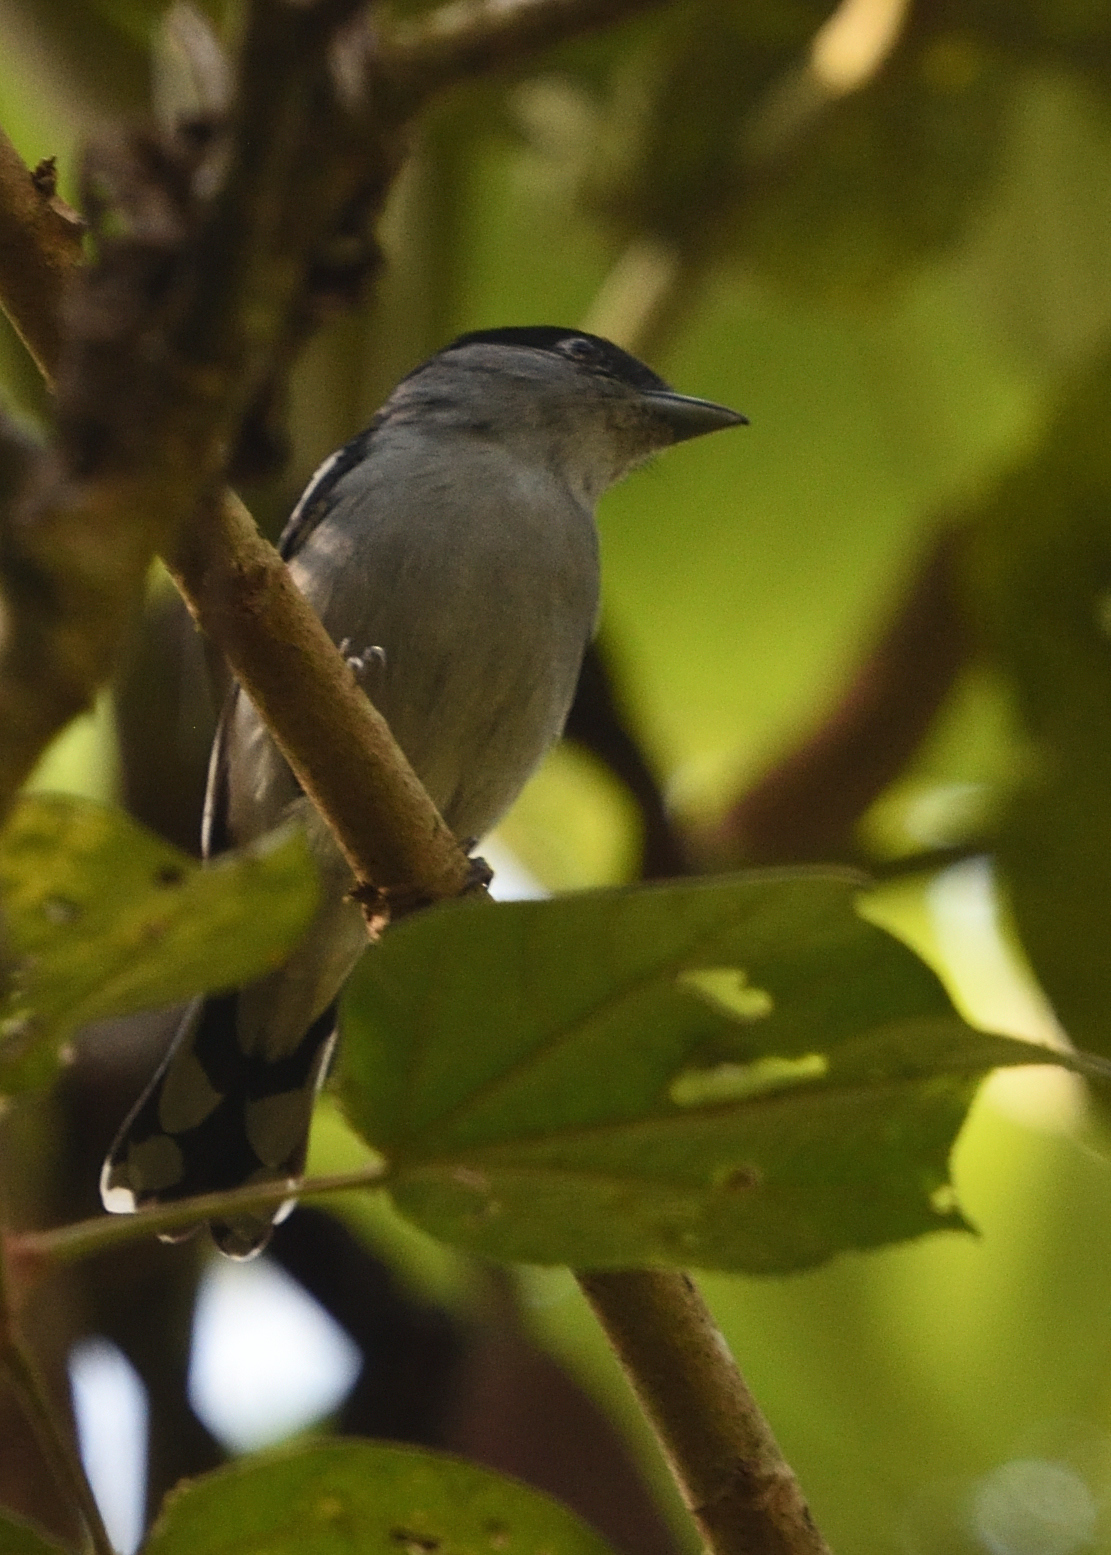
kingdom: Animalia
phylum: Chordata
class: Aves
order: Passeriformes
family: Cotingidae
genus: Pachyramphus
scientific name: Pachyramphus polychopterus
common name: White-winged becard
